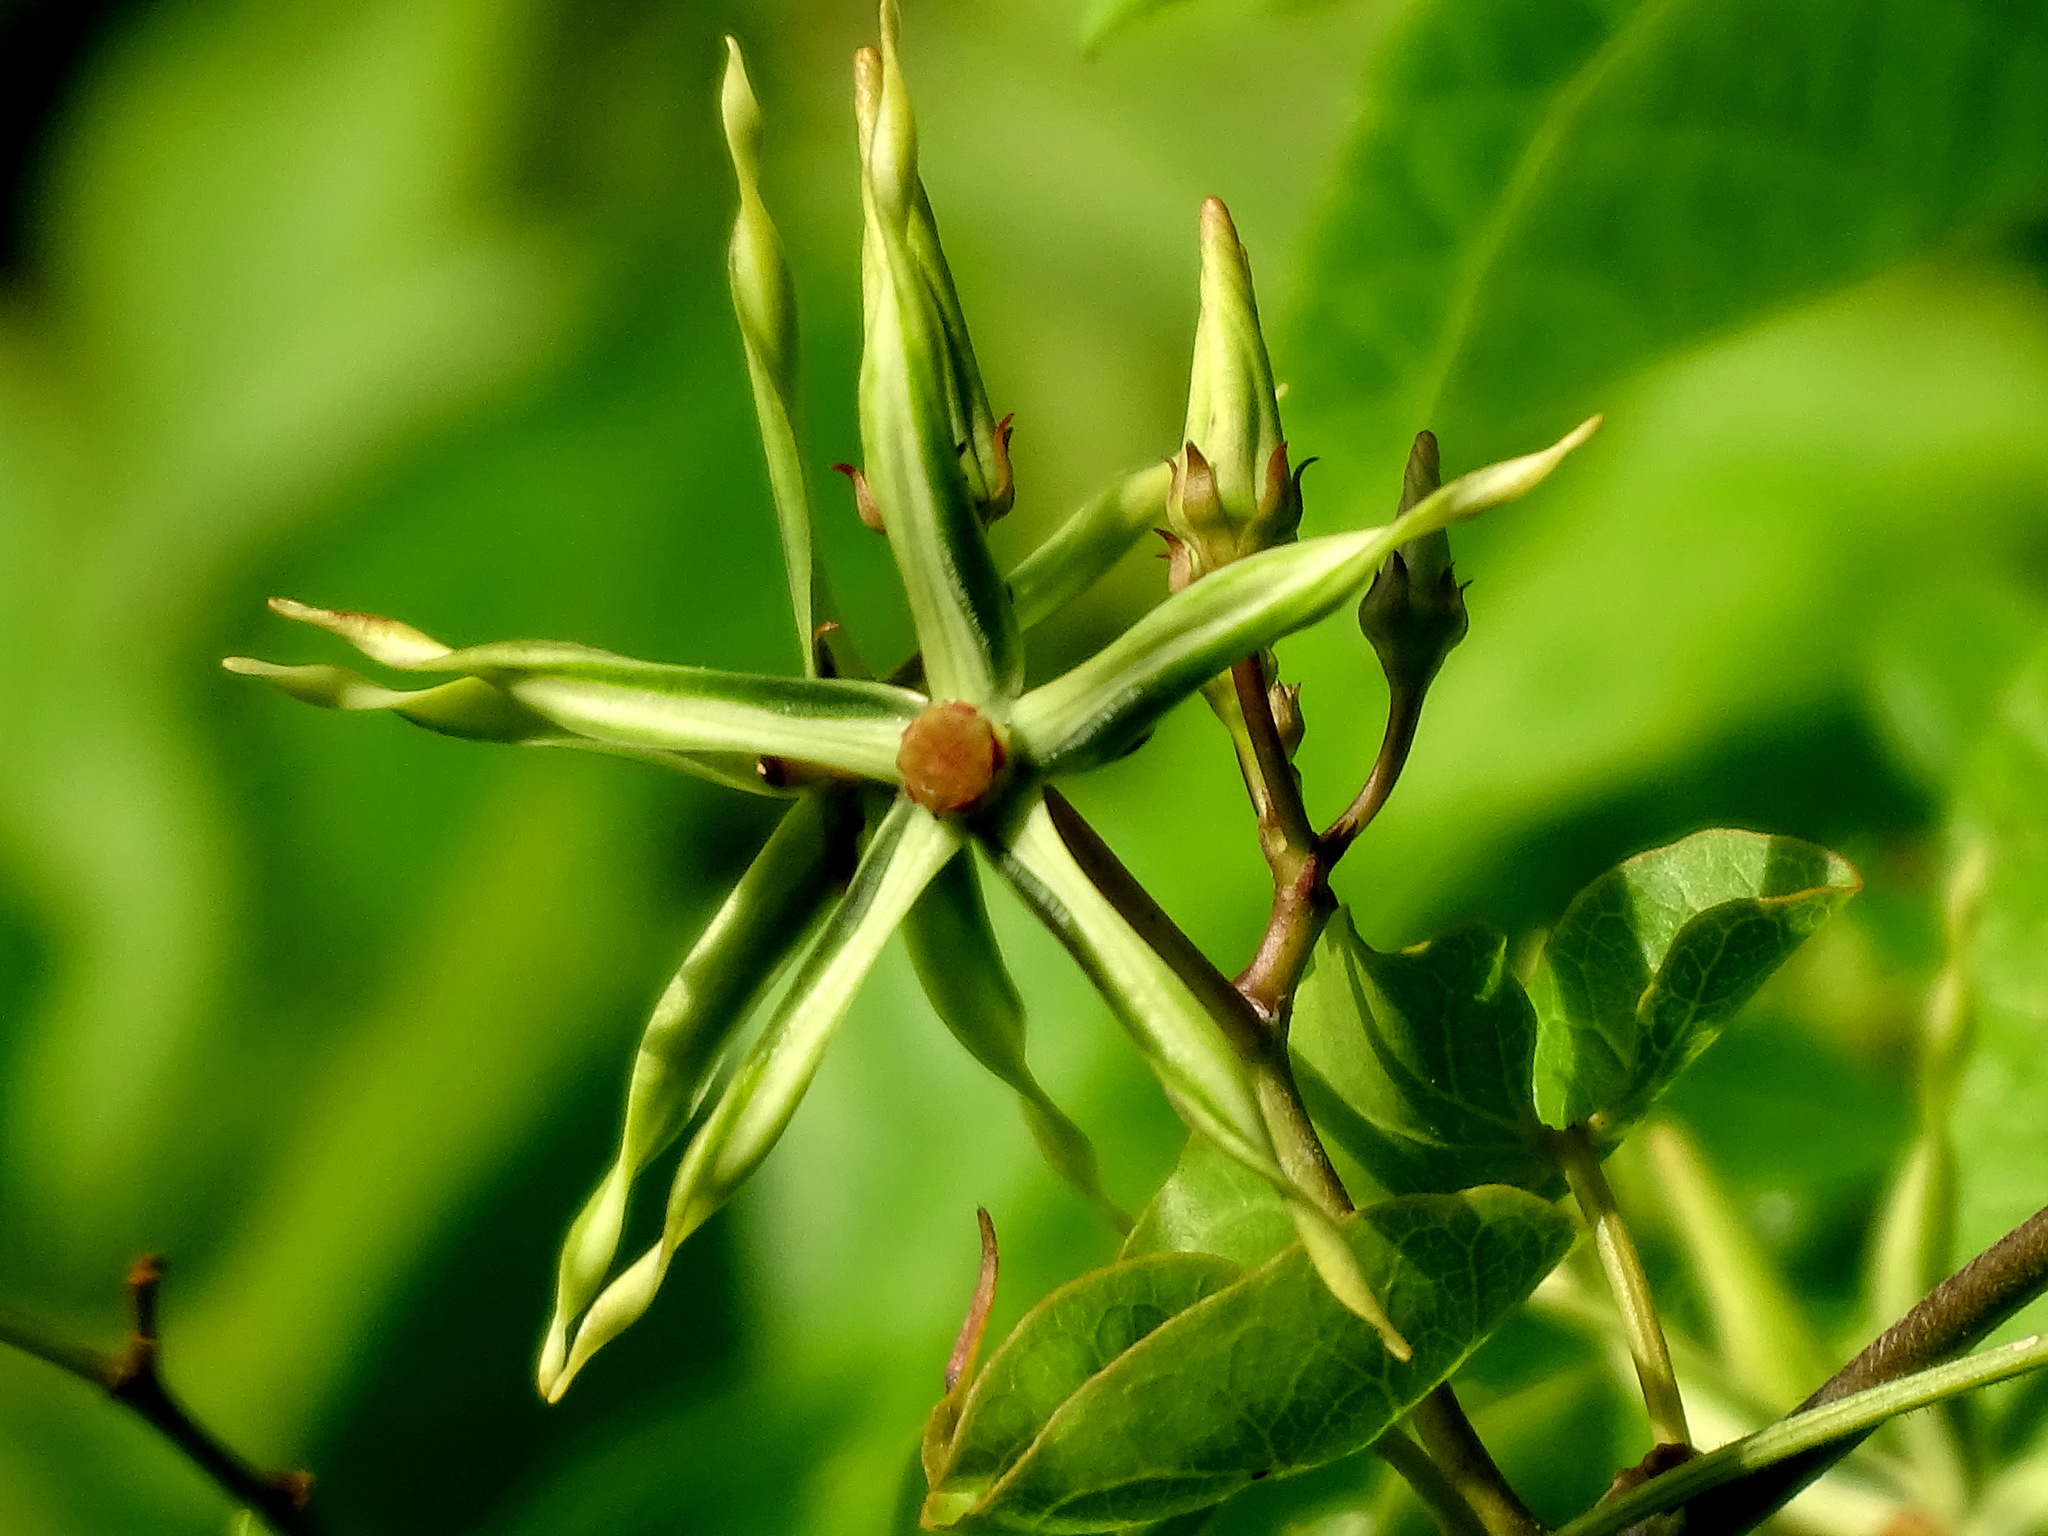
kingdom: Plantae
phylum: Tracheophyta
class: Magnoliopsida
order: Gentianales
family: Apocynaceae
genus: Gonolobus
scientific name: Gonolobus cteniophorus
